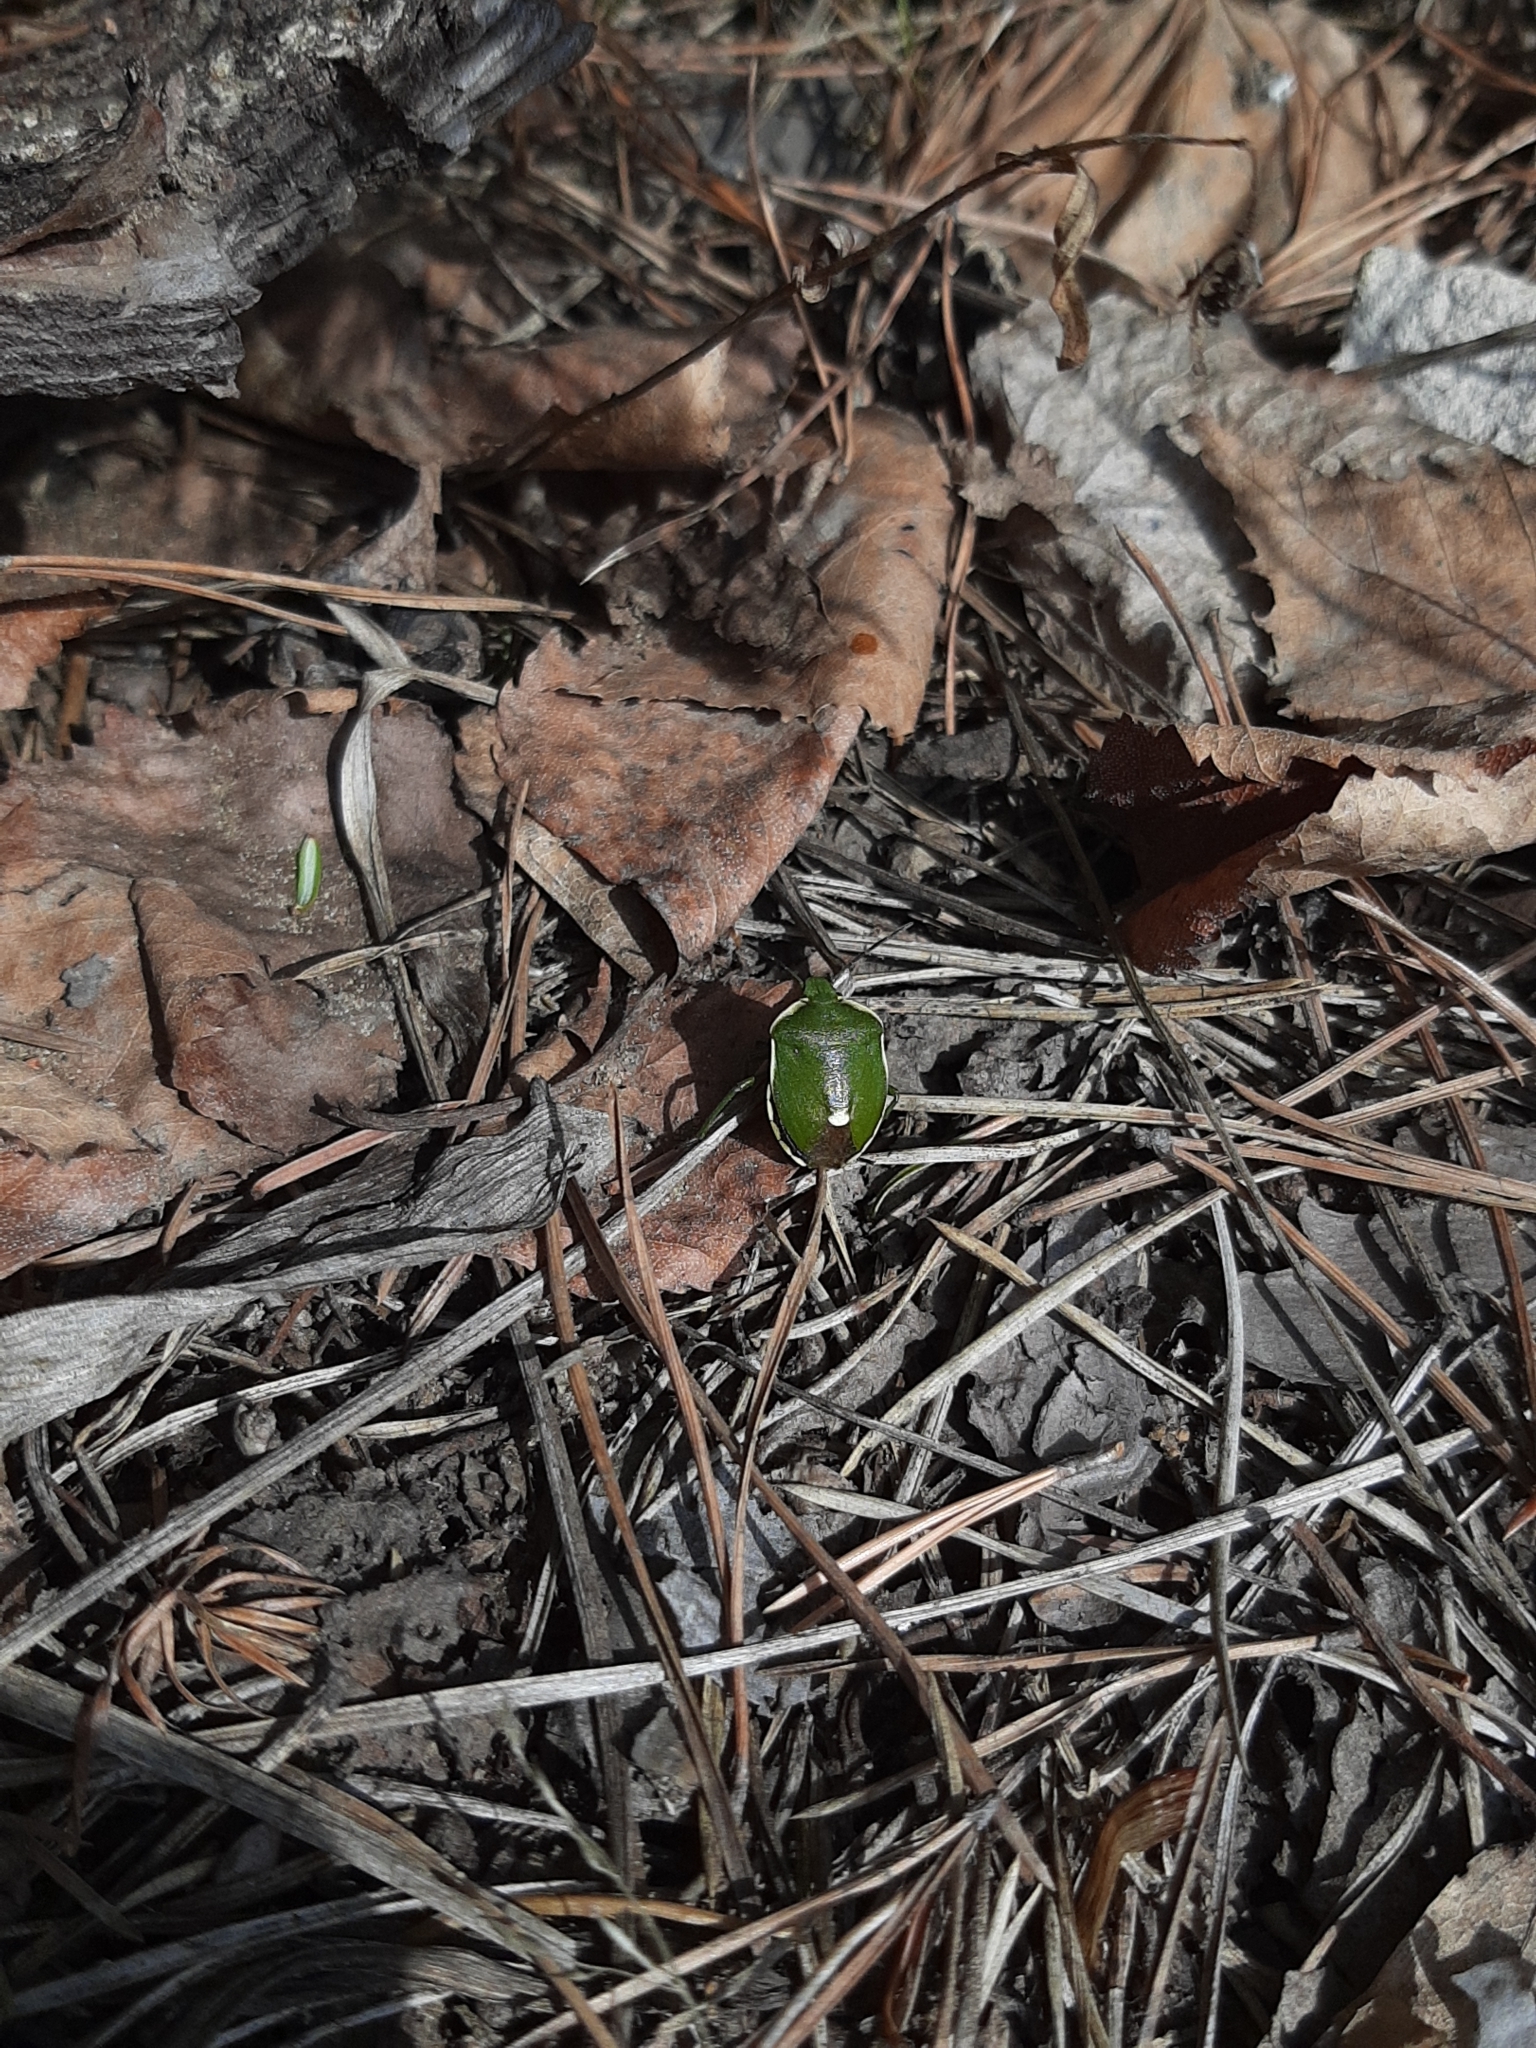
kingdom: Animalia
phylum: Arthropoda
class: Insecta
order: Hemiptera
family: Pentatomidae
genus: Chlorochroa
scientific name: Chlorochroa juniperina
